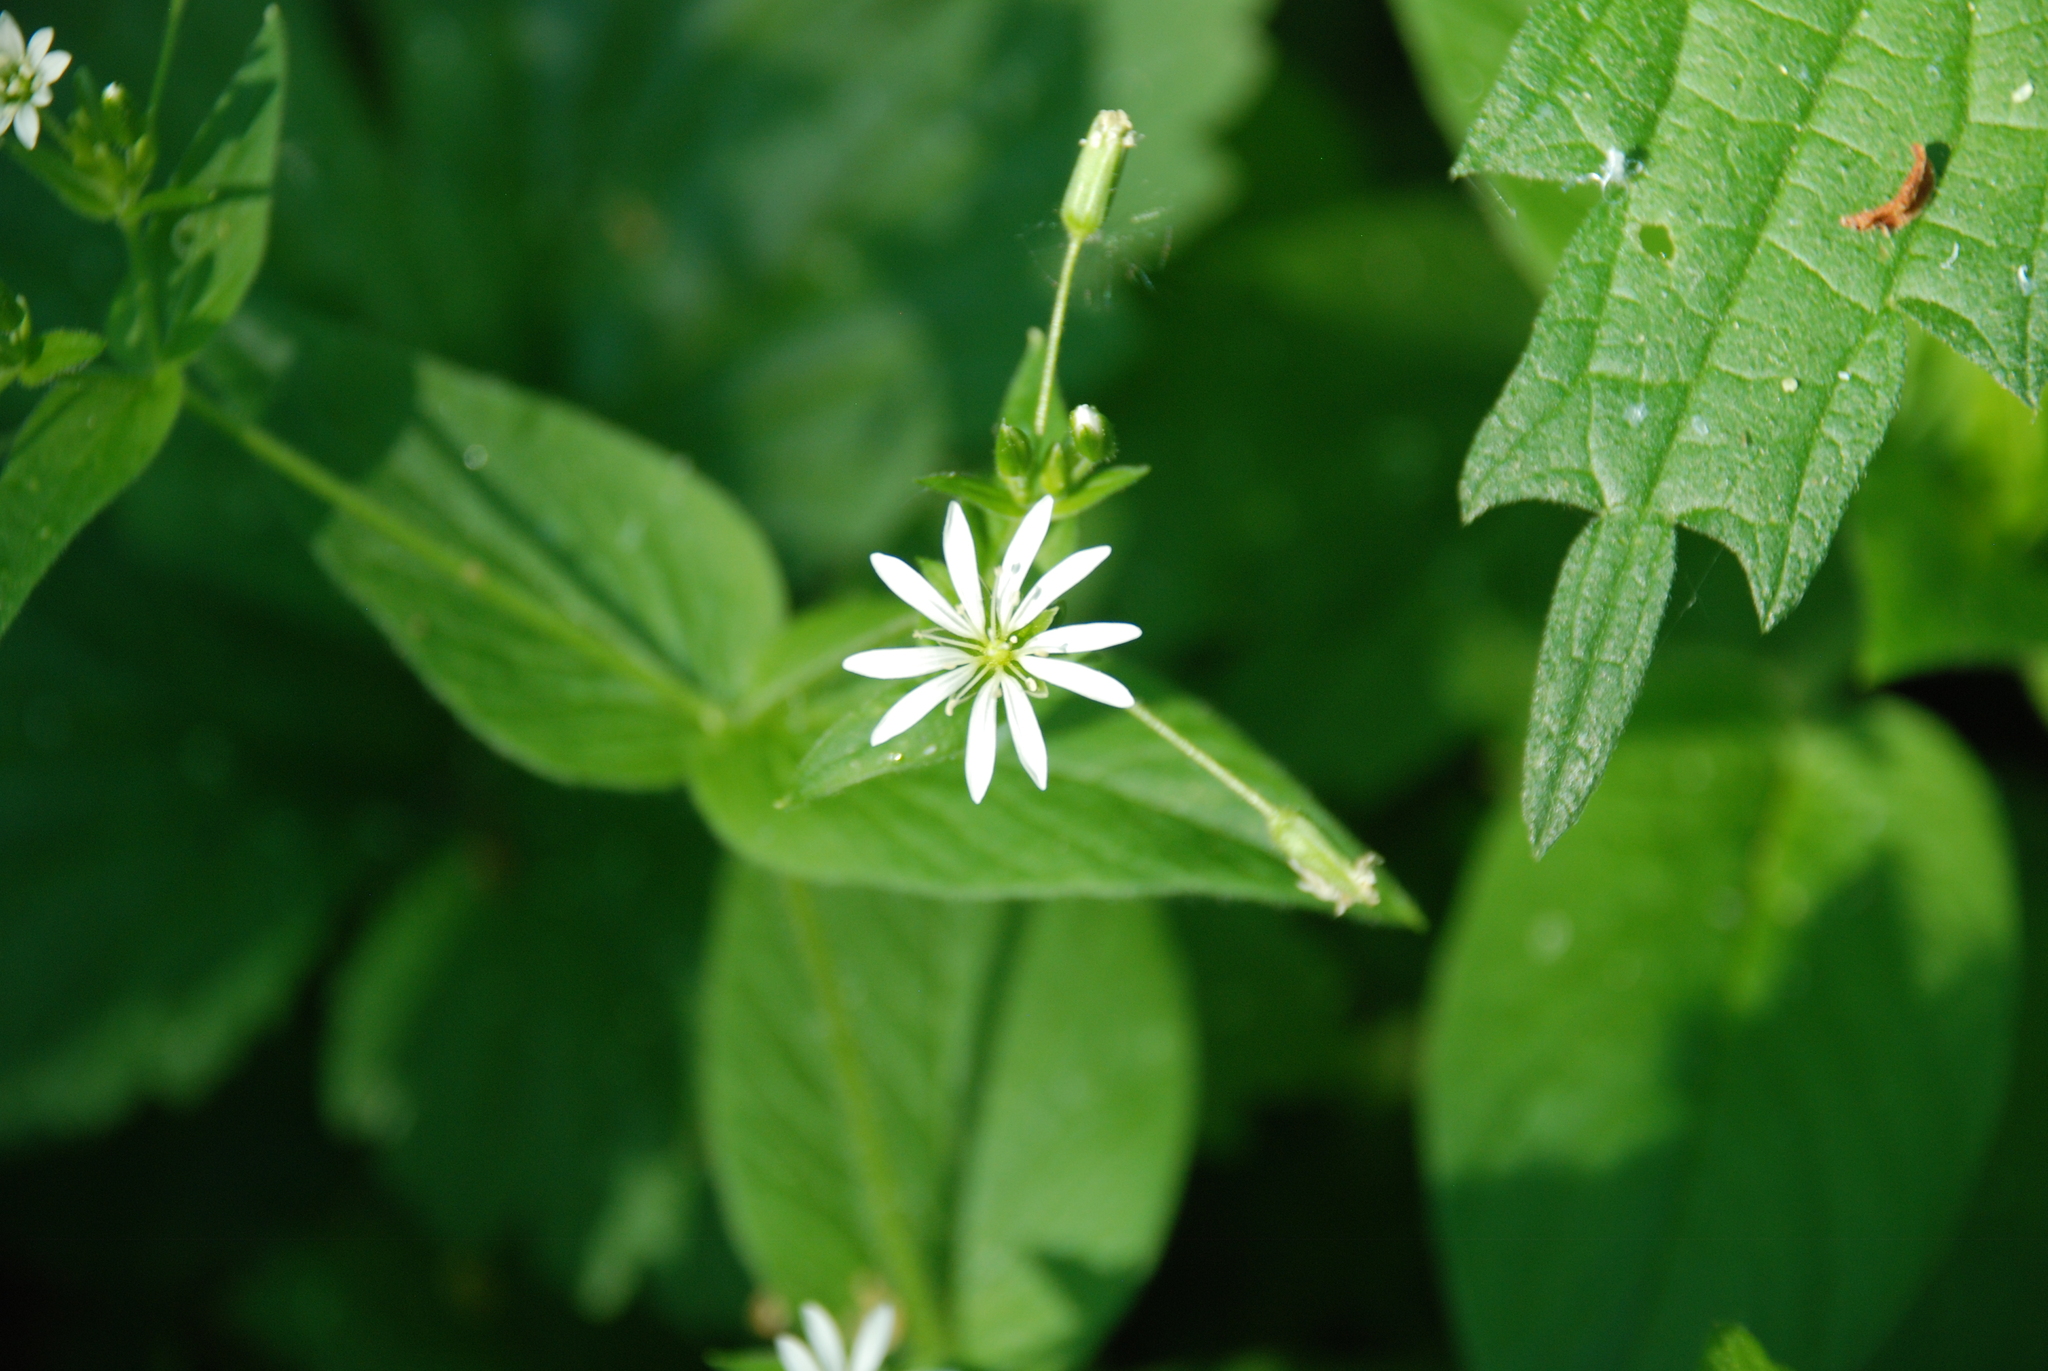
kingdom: Plantae
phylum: Tracheophyta
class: Magnoliopsida
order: Caryophyllales
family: Caryophyllaceae
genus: Stellaria
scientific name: Stellaria nemorum
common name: Wood stitchwort
